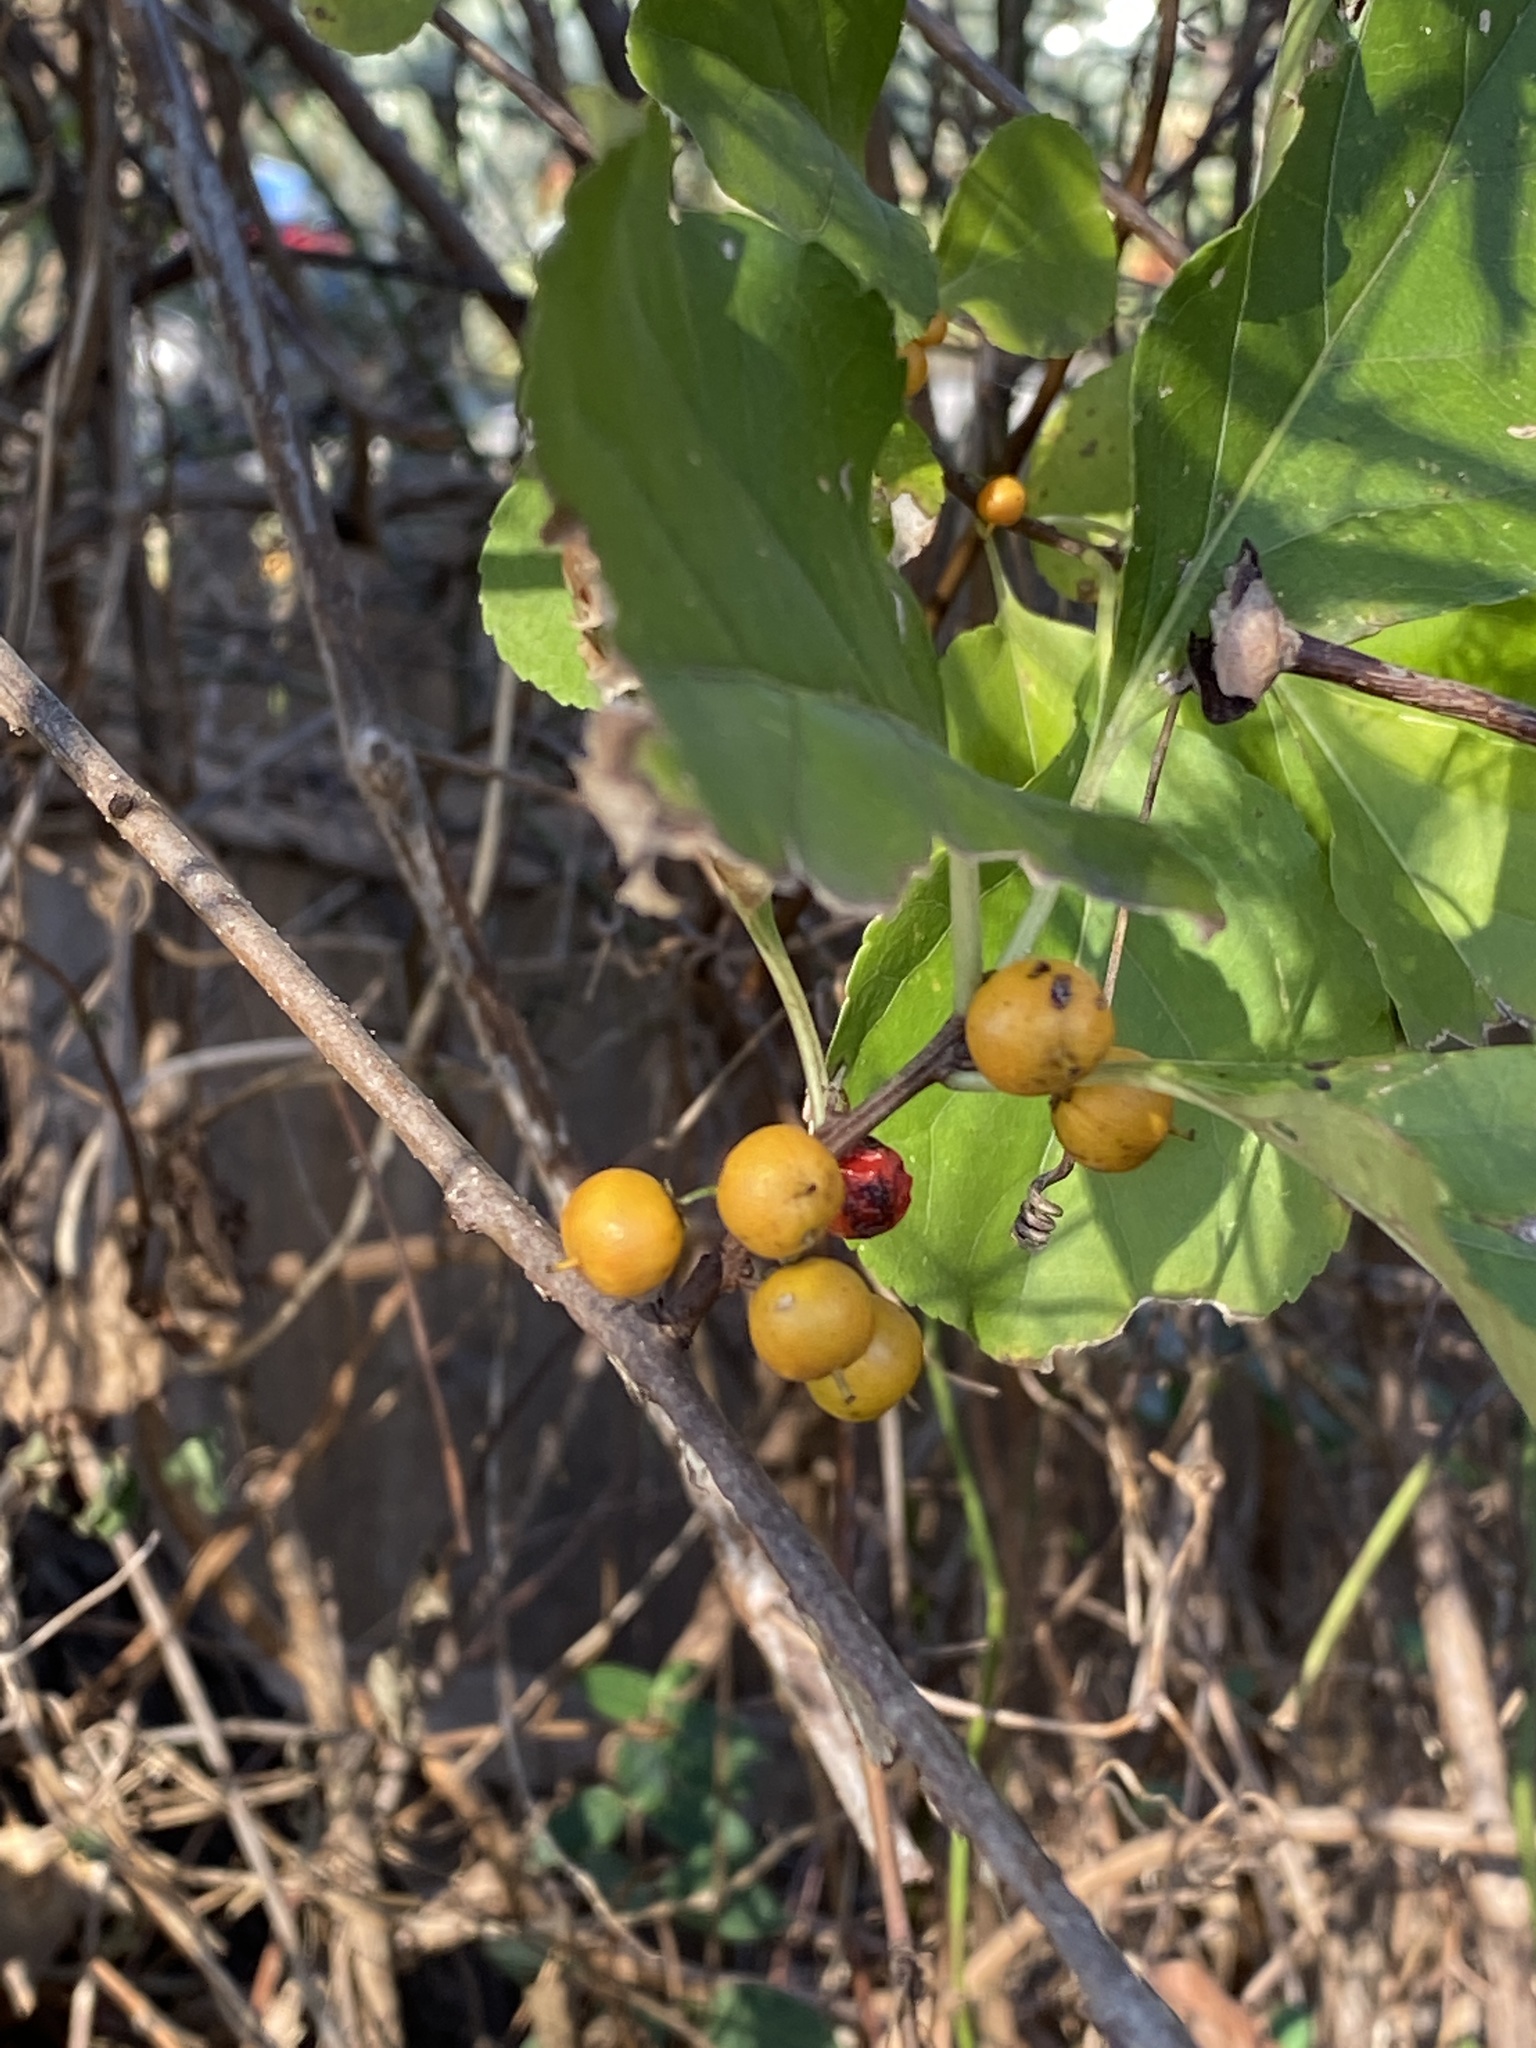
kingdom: Plantae
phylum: Tracheophyta
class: Magnoliopsida
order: Celastrales
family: Celastraceae
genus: Celastrus
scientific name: Celastrus orbiculatus
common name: Oriental bittersweet
